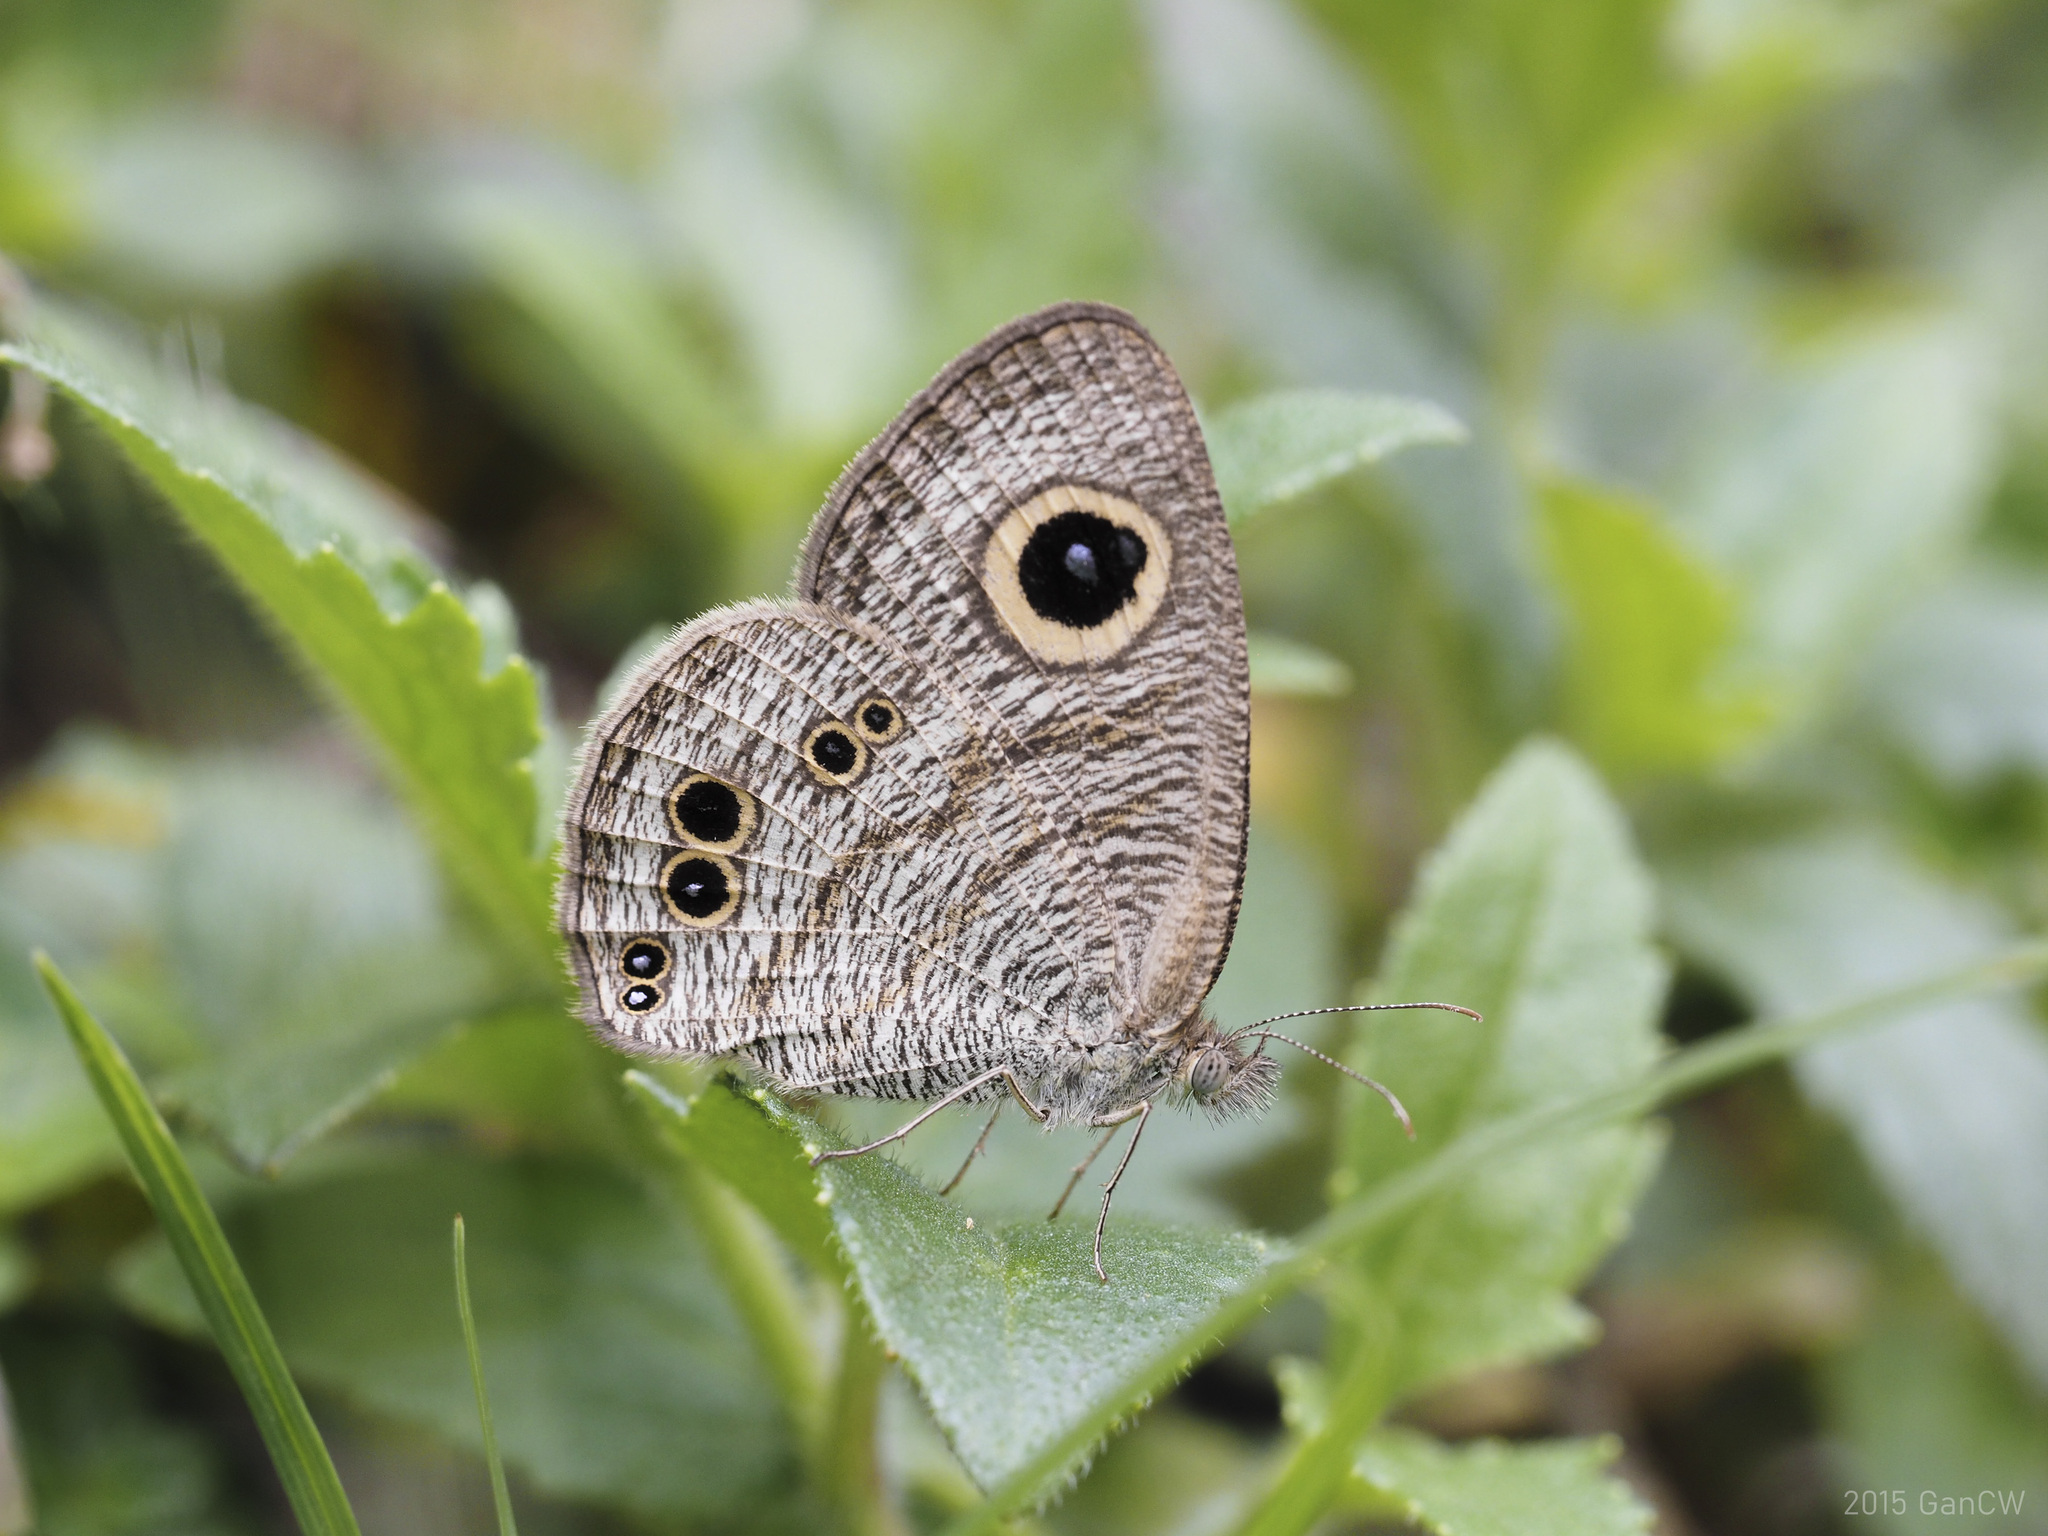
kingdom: Animalia
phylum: Arthropoda
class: Insecta
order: Lepidoptera
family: Nymphalidae
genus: Ypthima
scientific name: Ypthima baldus
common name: Common five-ring
